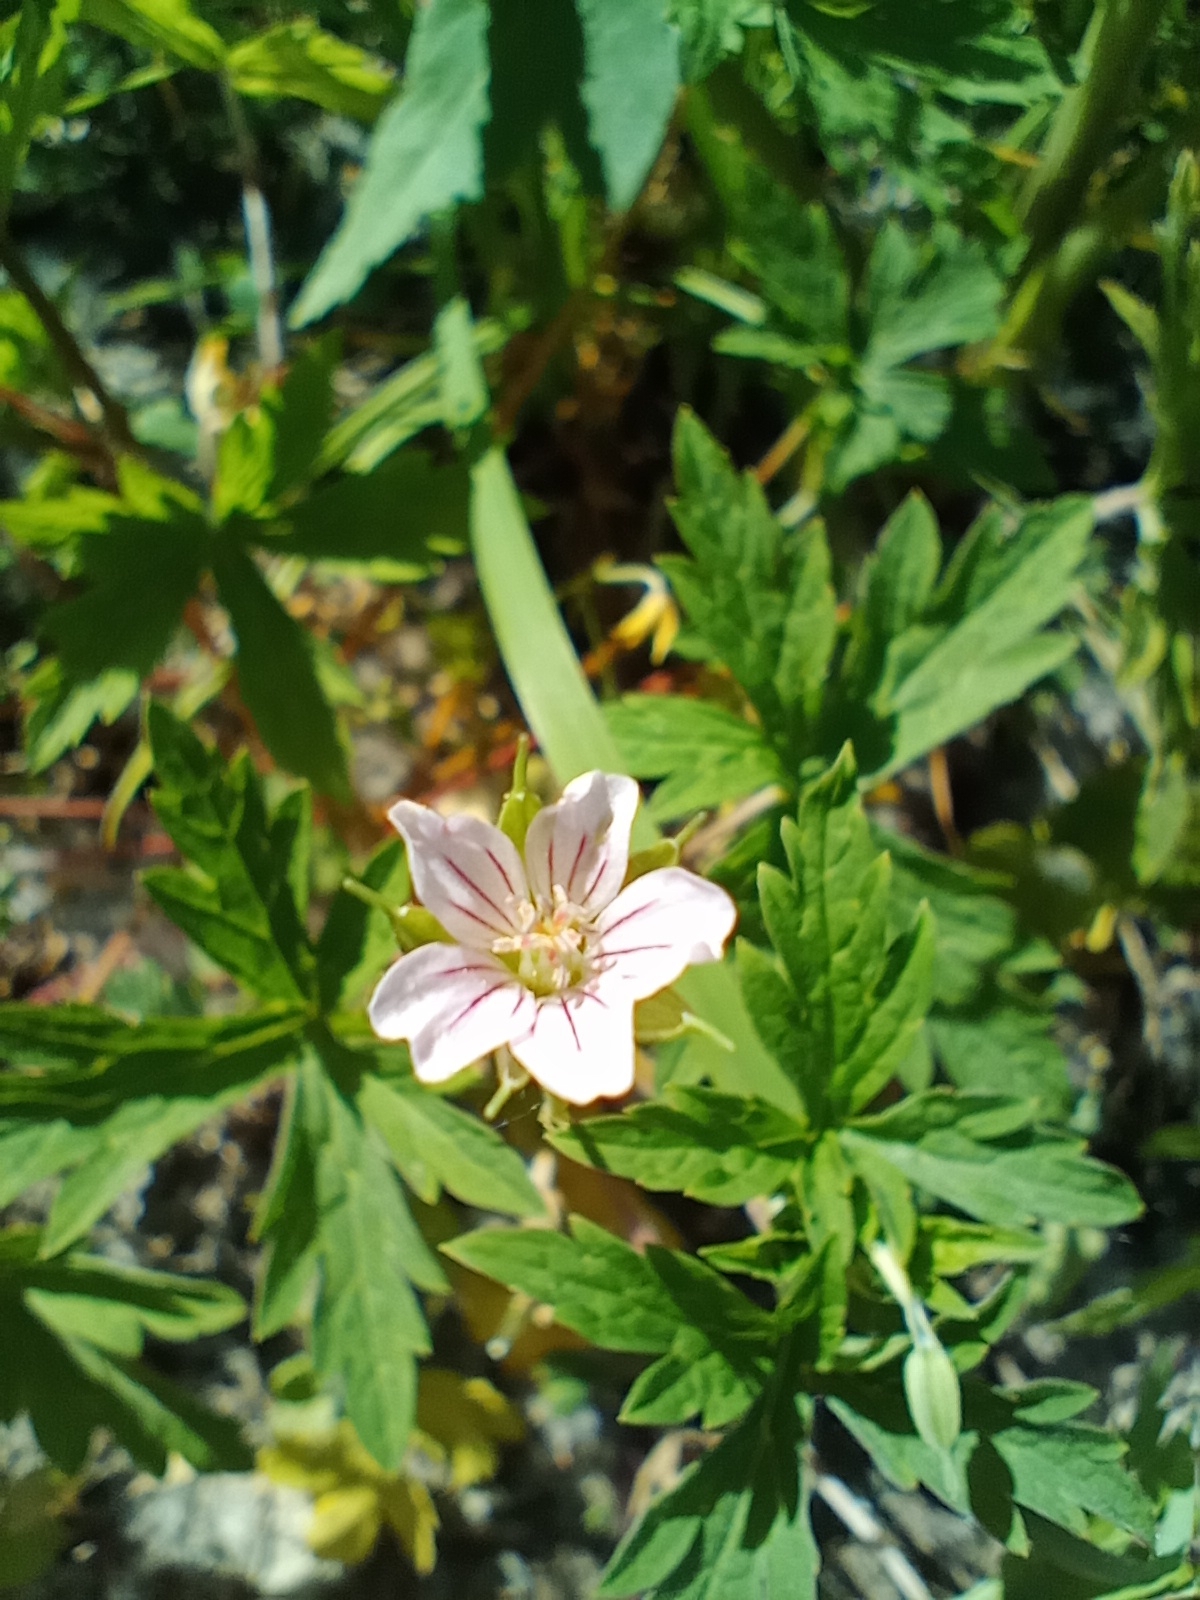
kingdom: Plantae
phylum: Tracheophyta
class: Magnoliopsida
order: Geraniales
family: Geraniaceae
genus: Geranium
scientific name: Geranium sibiricum
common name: Siberian crane's-bill
